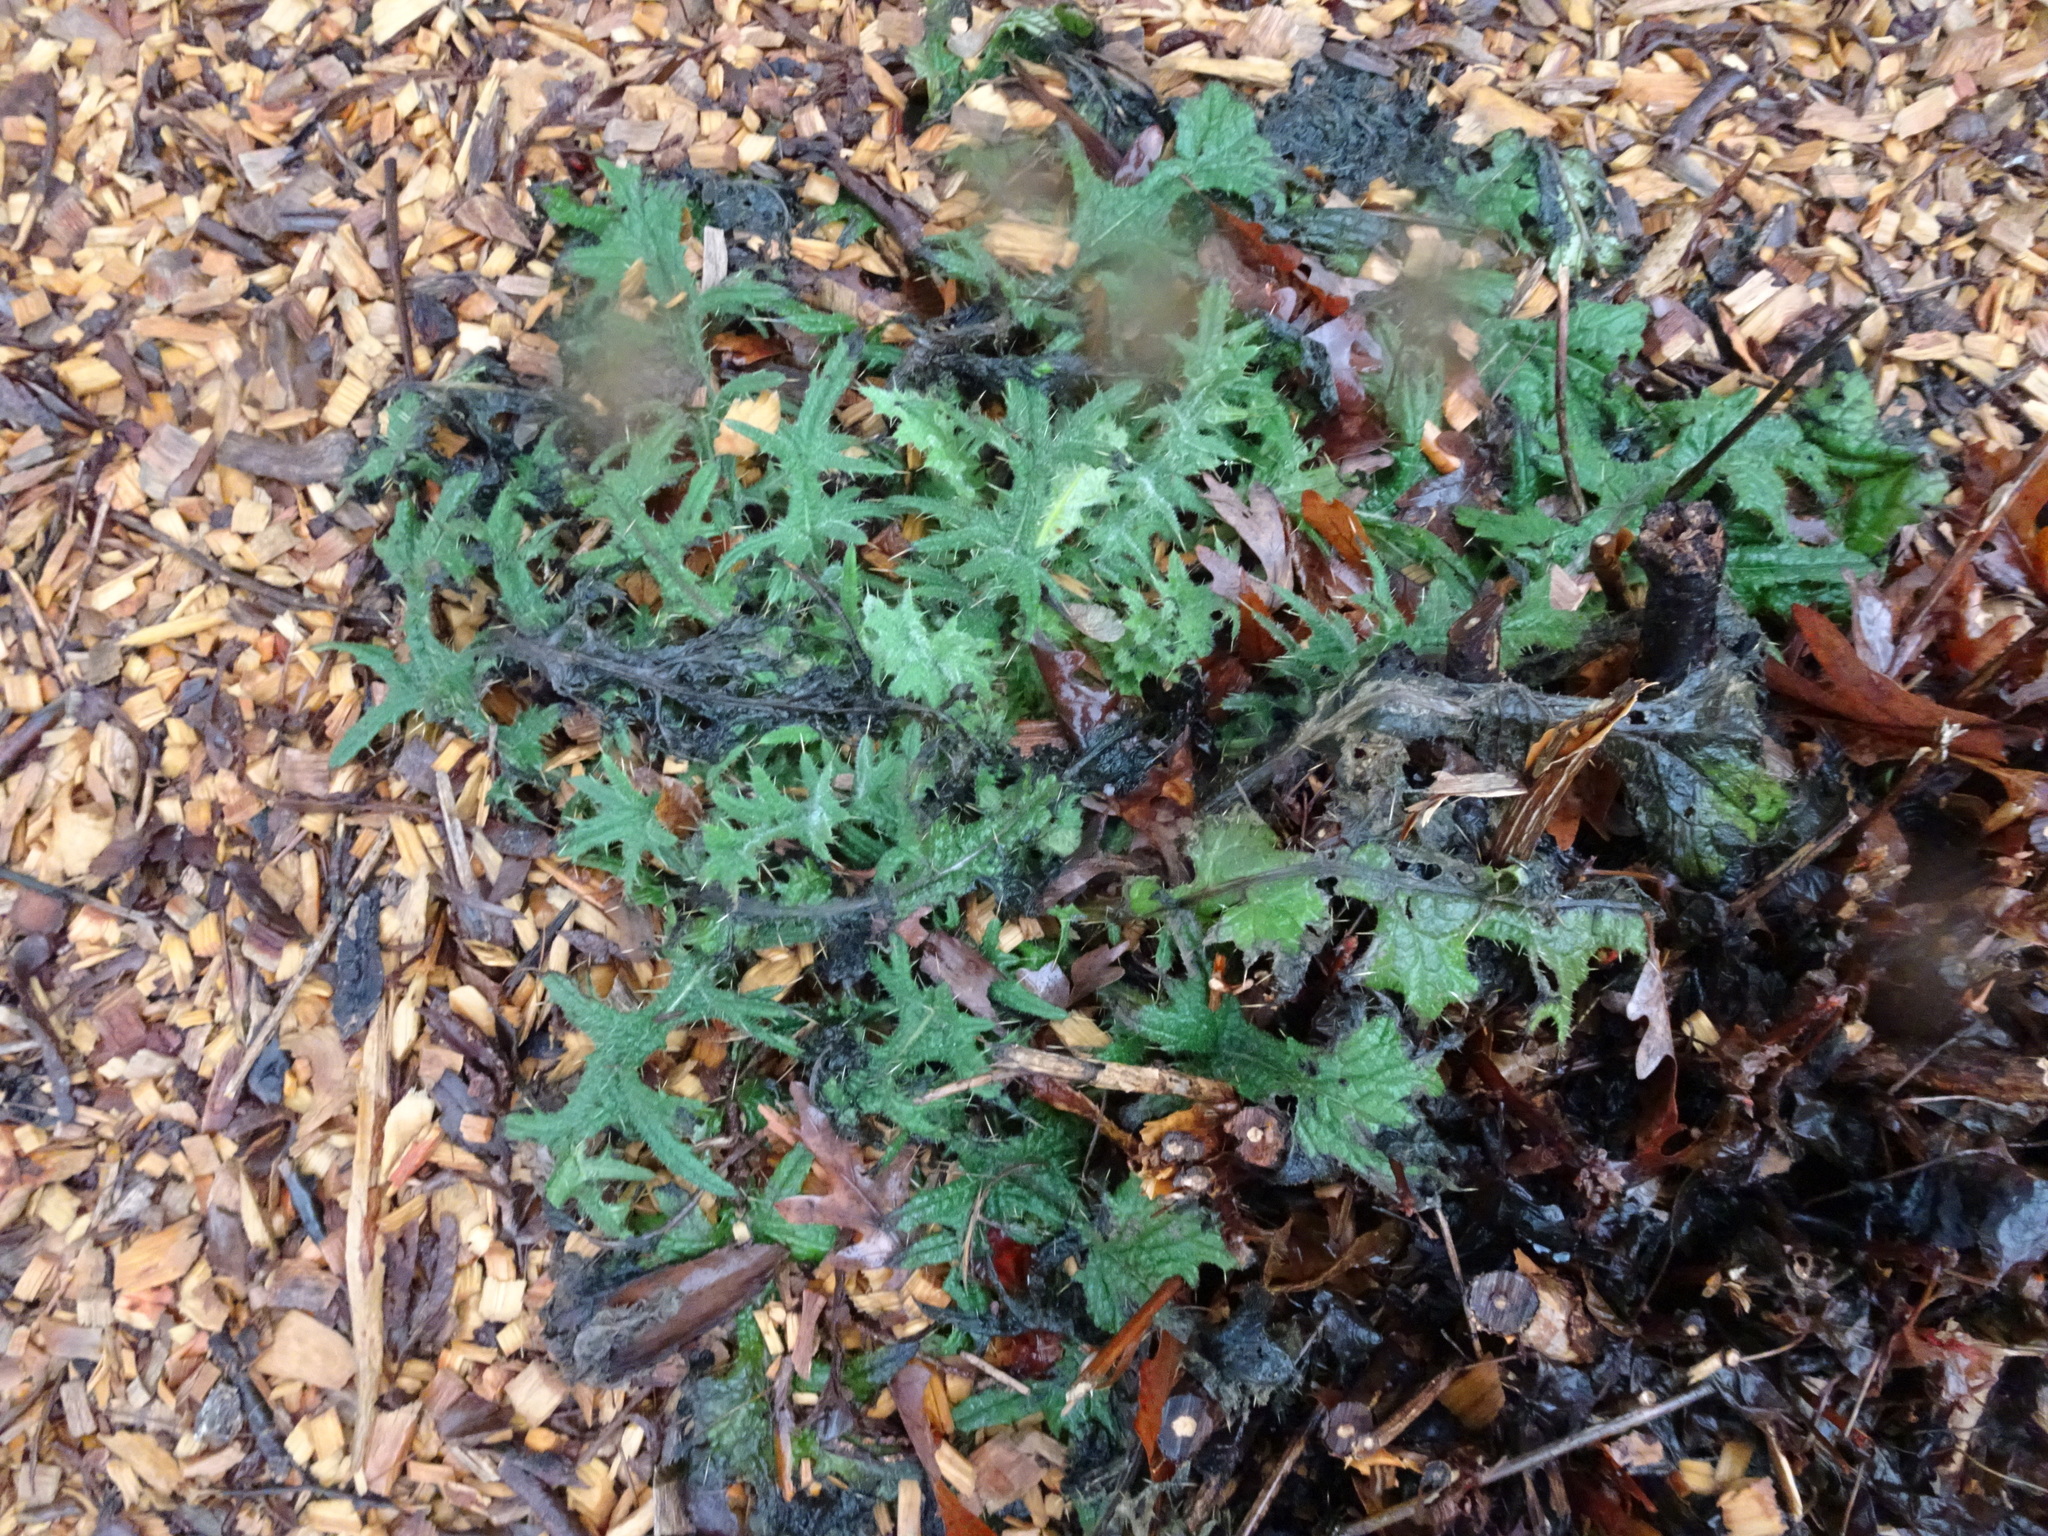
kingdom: Plantae
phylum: Tracheophyta
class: Magnoliopsida
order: Asterales
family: Asteraceae
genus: Cirsium
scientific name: Cirsium vulgare
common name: Bull thistle
